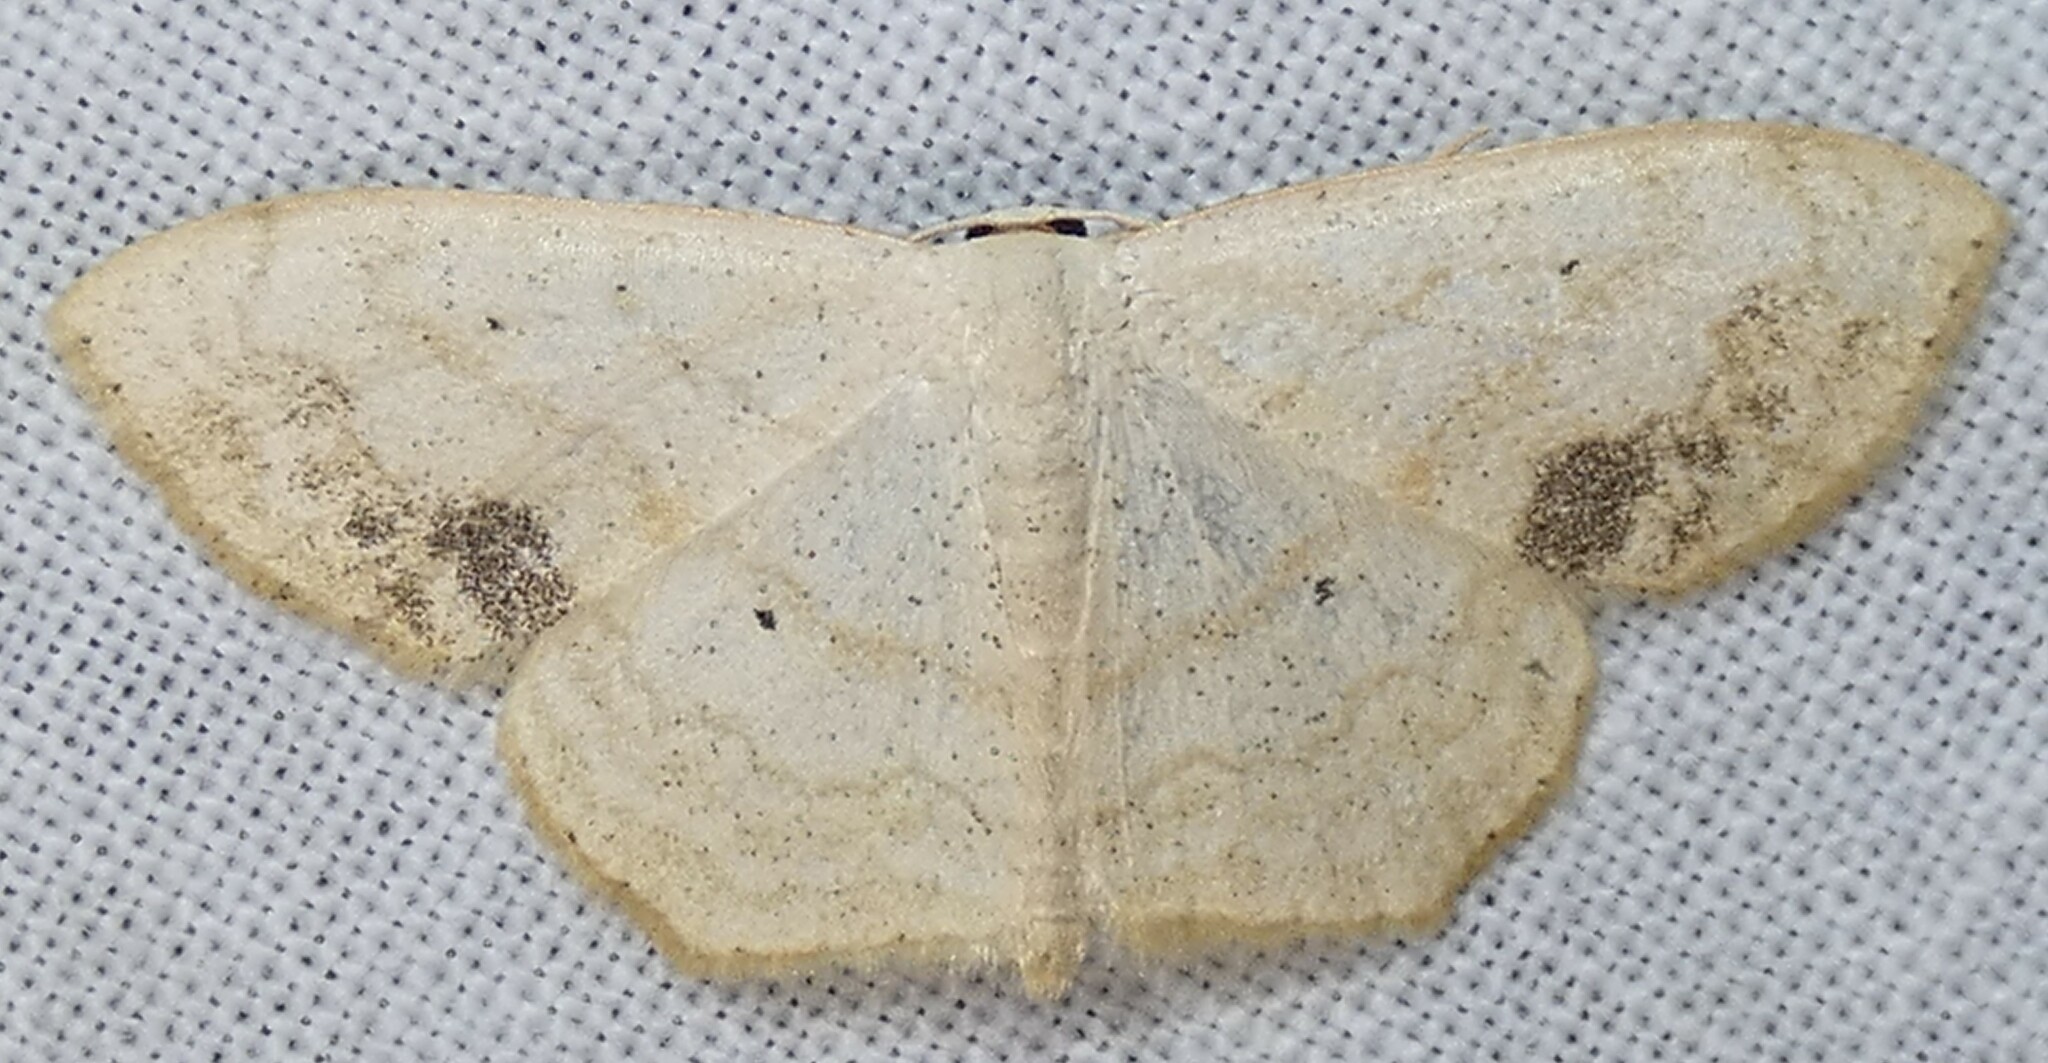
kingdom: Animalia
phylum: Arthropoda
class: Insecta
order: Lepidoptera
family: Geometridae
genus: Scopula
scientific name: Scopula limboundata
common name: Large lace border
